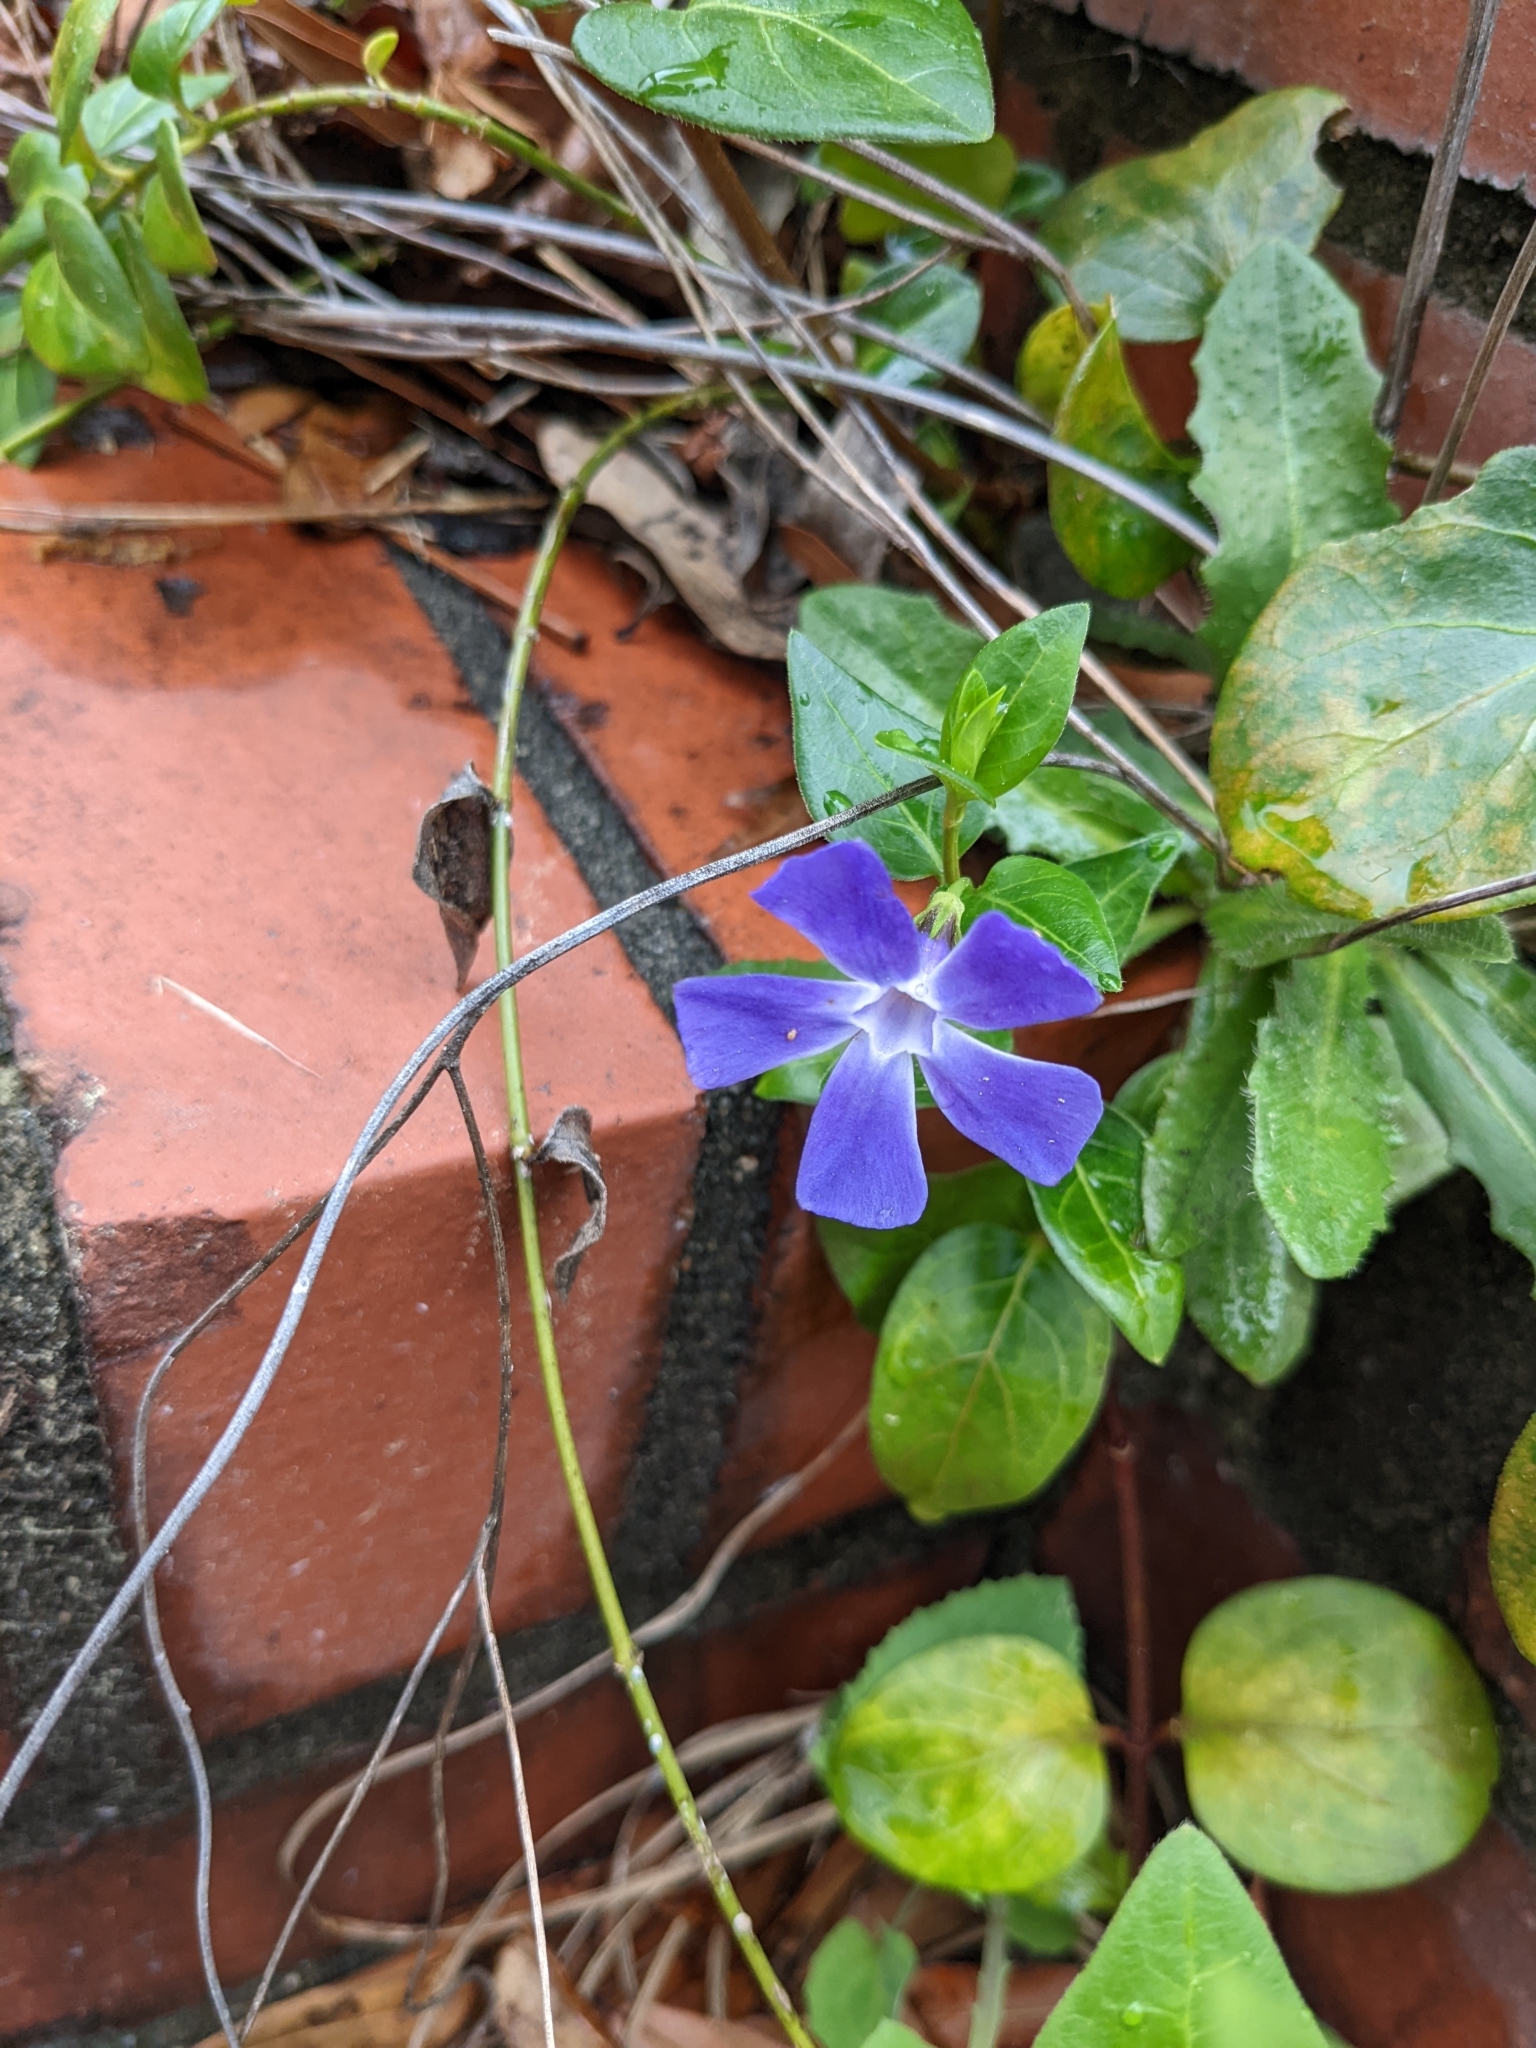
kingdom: Plantae
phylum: Tracheophyta
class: Magnoliopsida
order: Gentianales
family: Apocynaceae
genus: Vinca
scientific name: Vinca major
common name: Greater periwinkle
